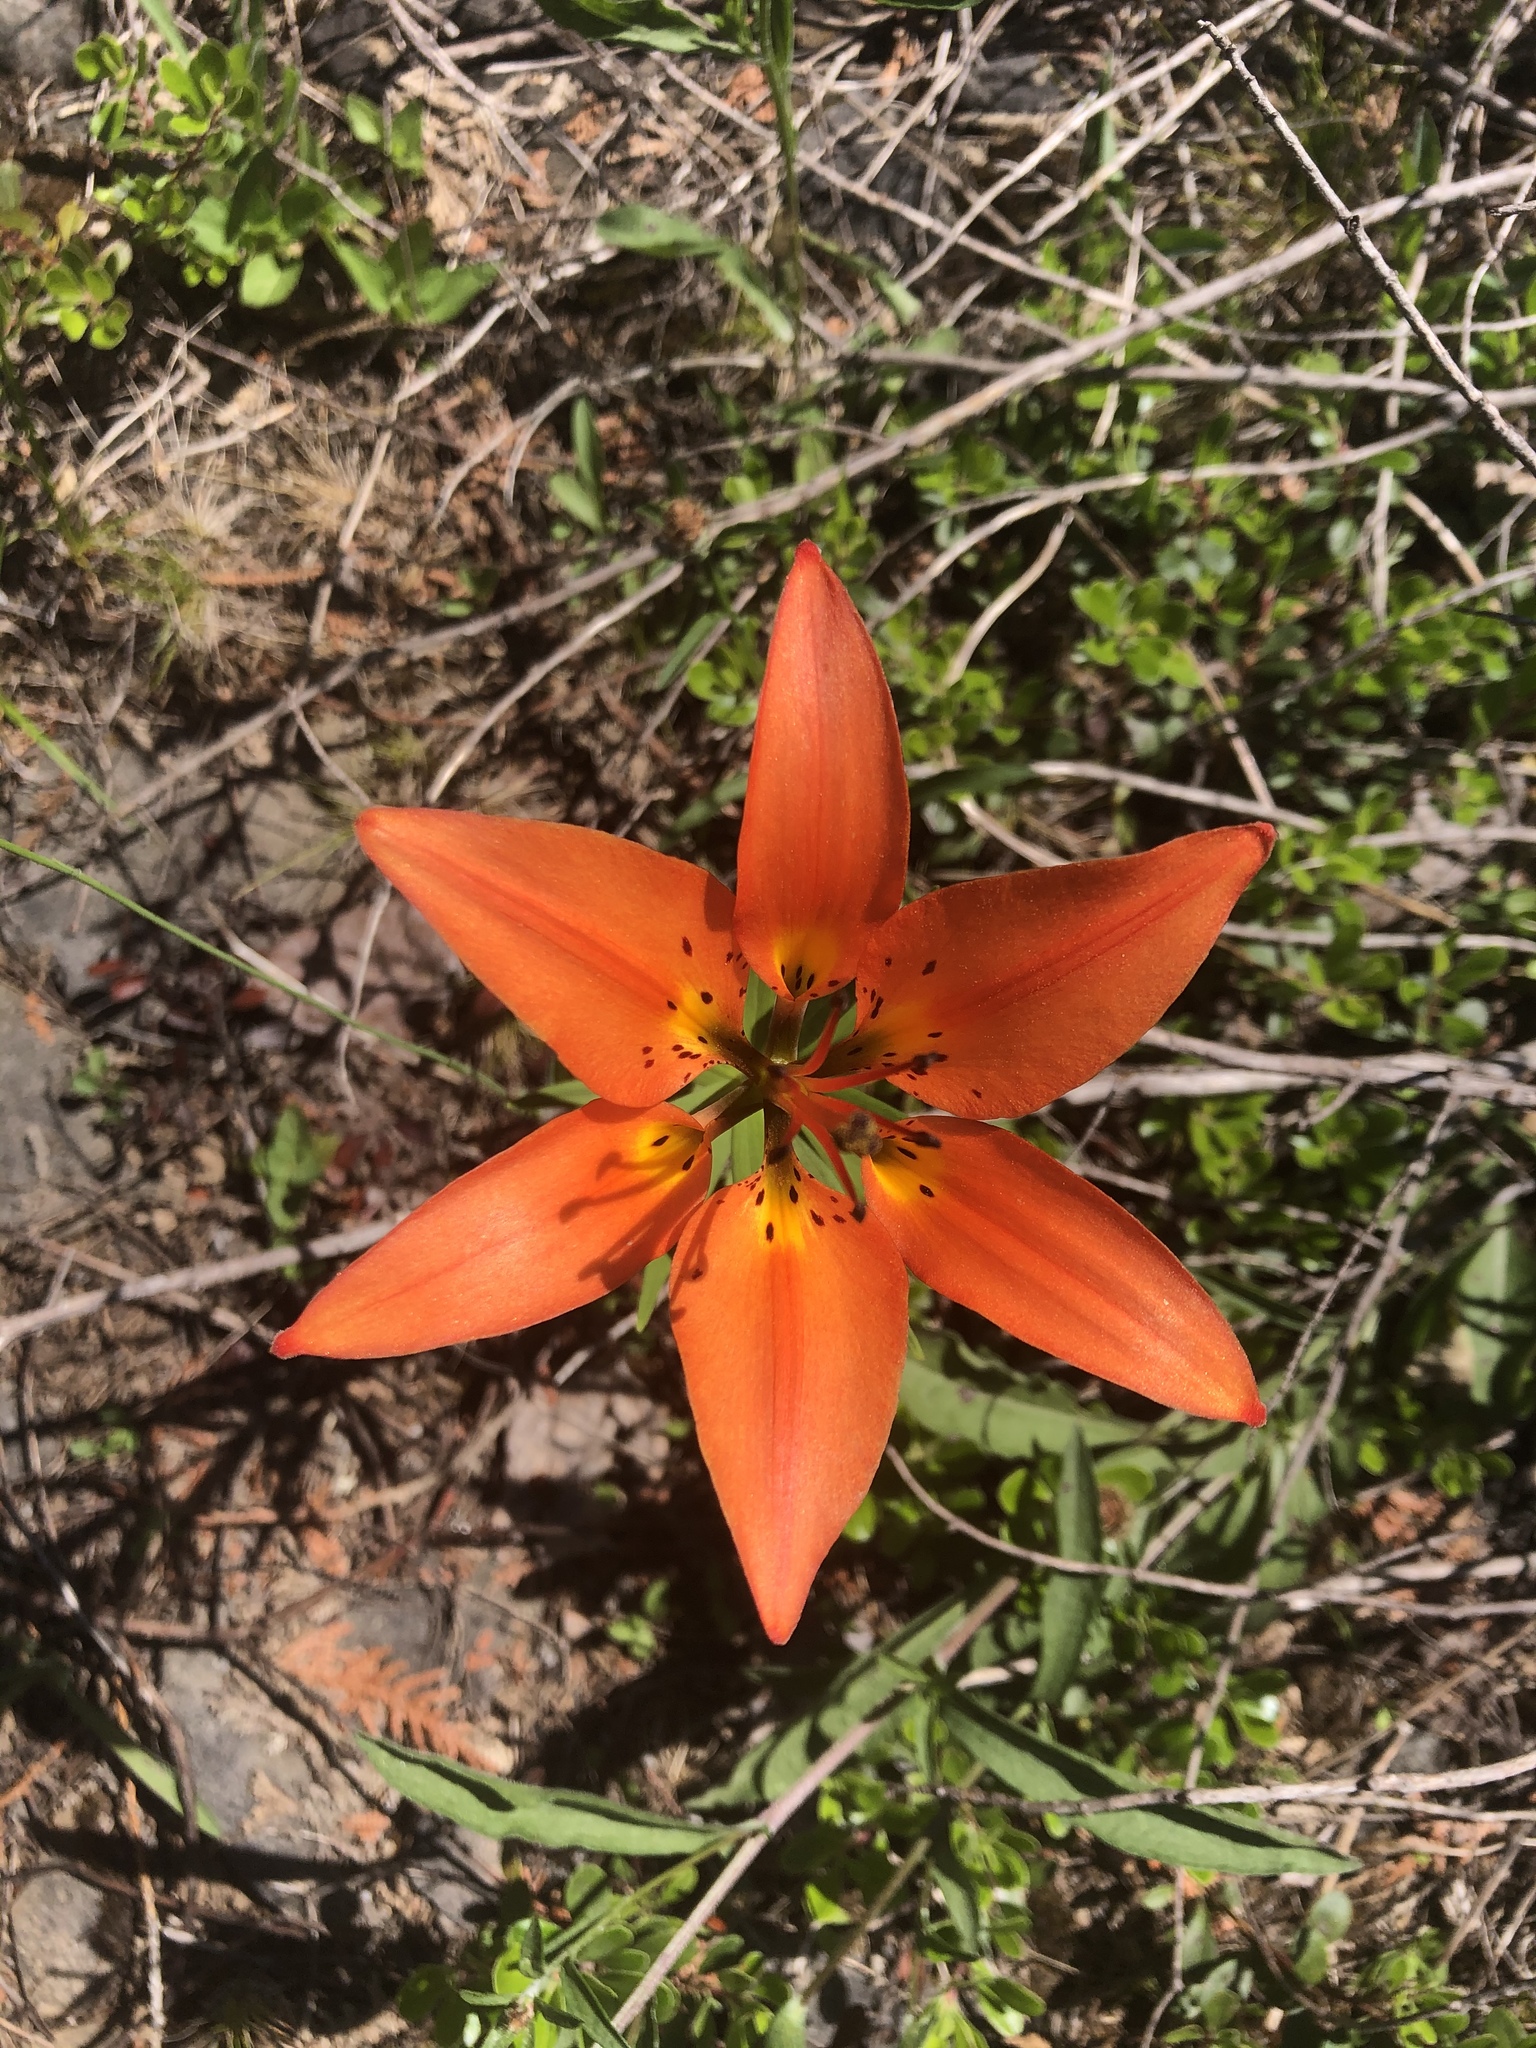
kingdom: Plantae
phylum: Tracheophyta
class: Liliopsida
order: Liliales
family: Liliaceae
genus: Lilium
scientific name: Lilium philadelphicum
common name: Red lily
